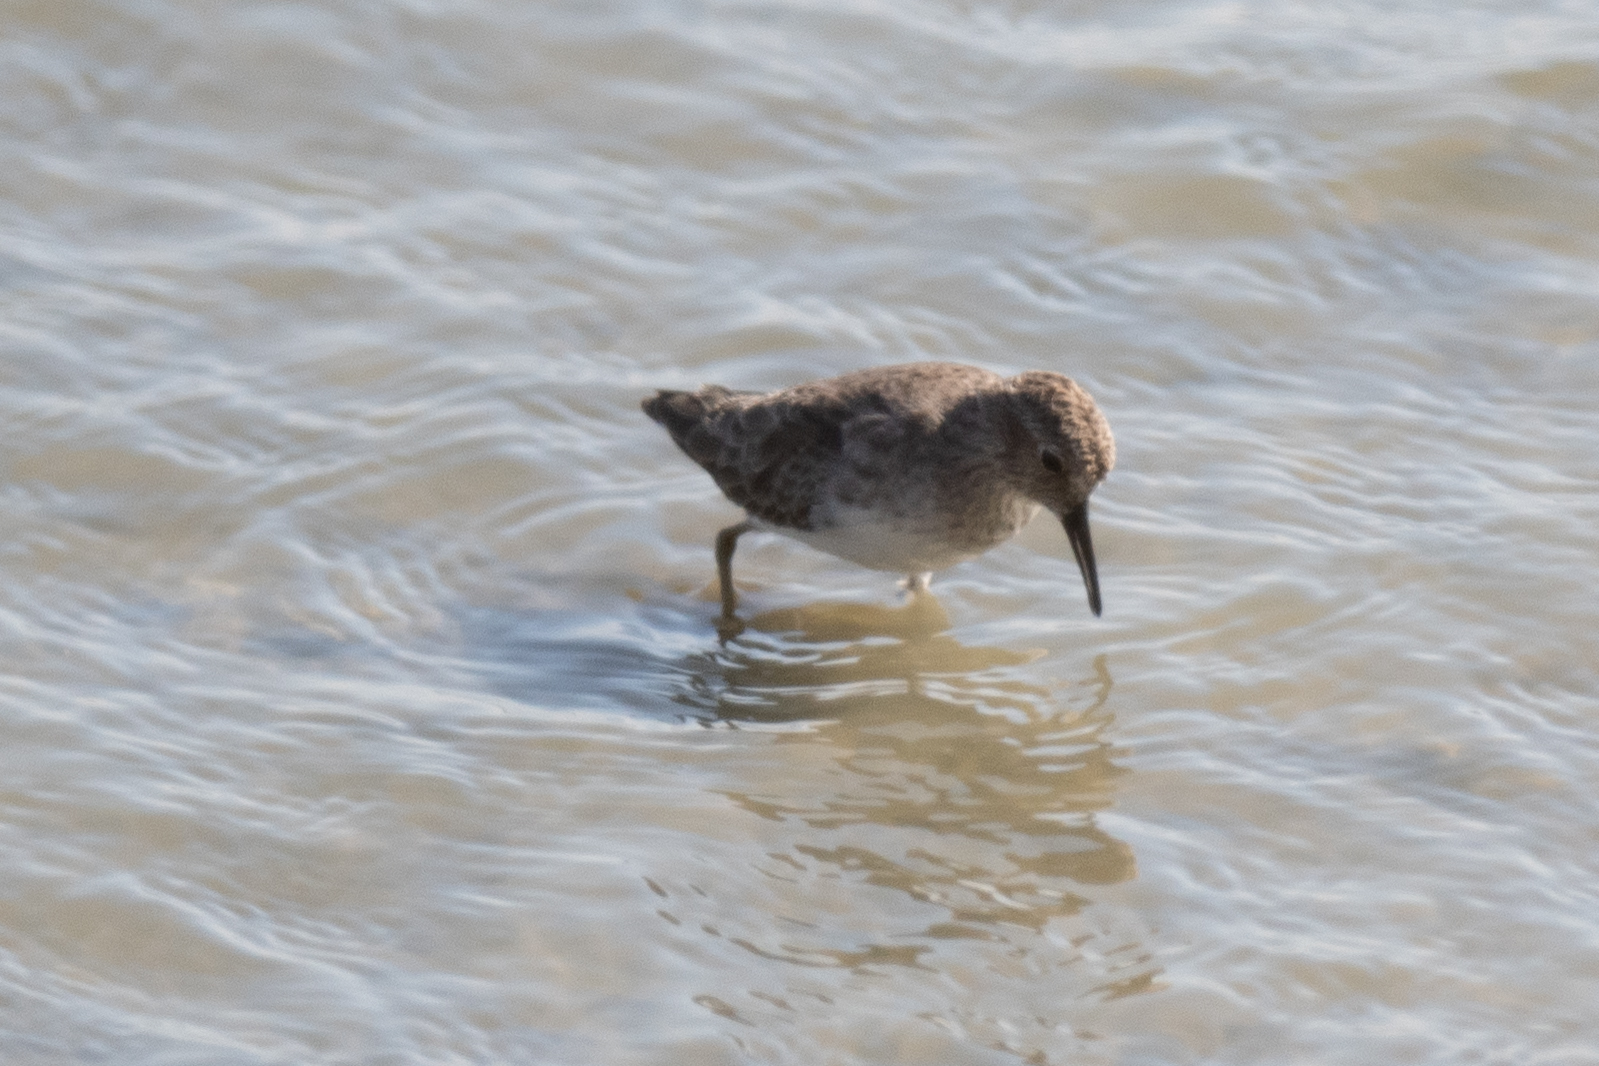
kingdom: Animalia
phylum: Chordata
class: Aves
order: Charadriiformes
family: Scolopacidae
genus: Calidris
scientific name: Calidris minutilla
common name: Least sandpiper
